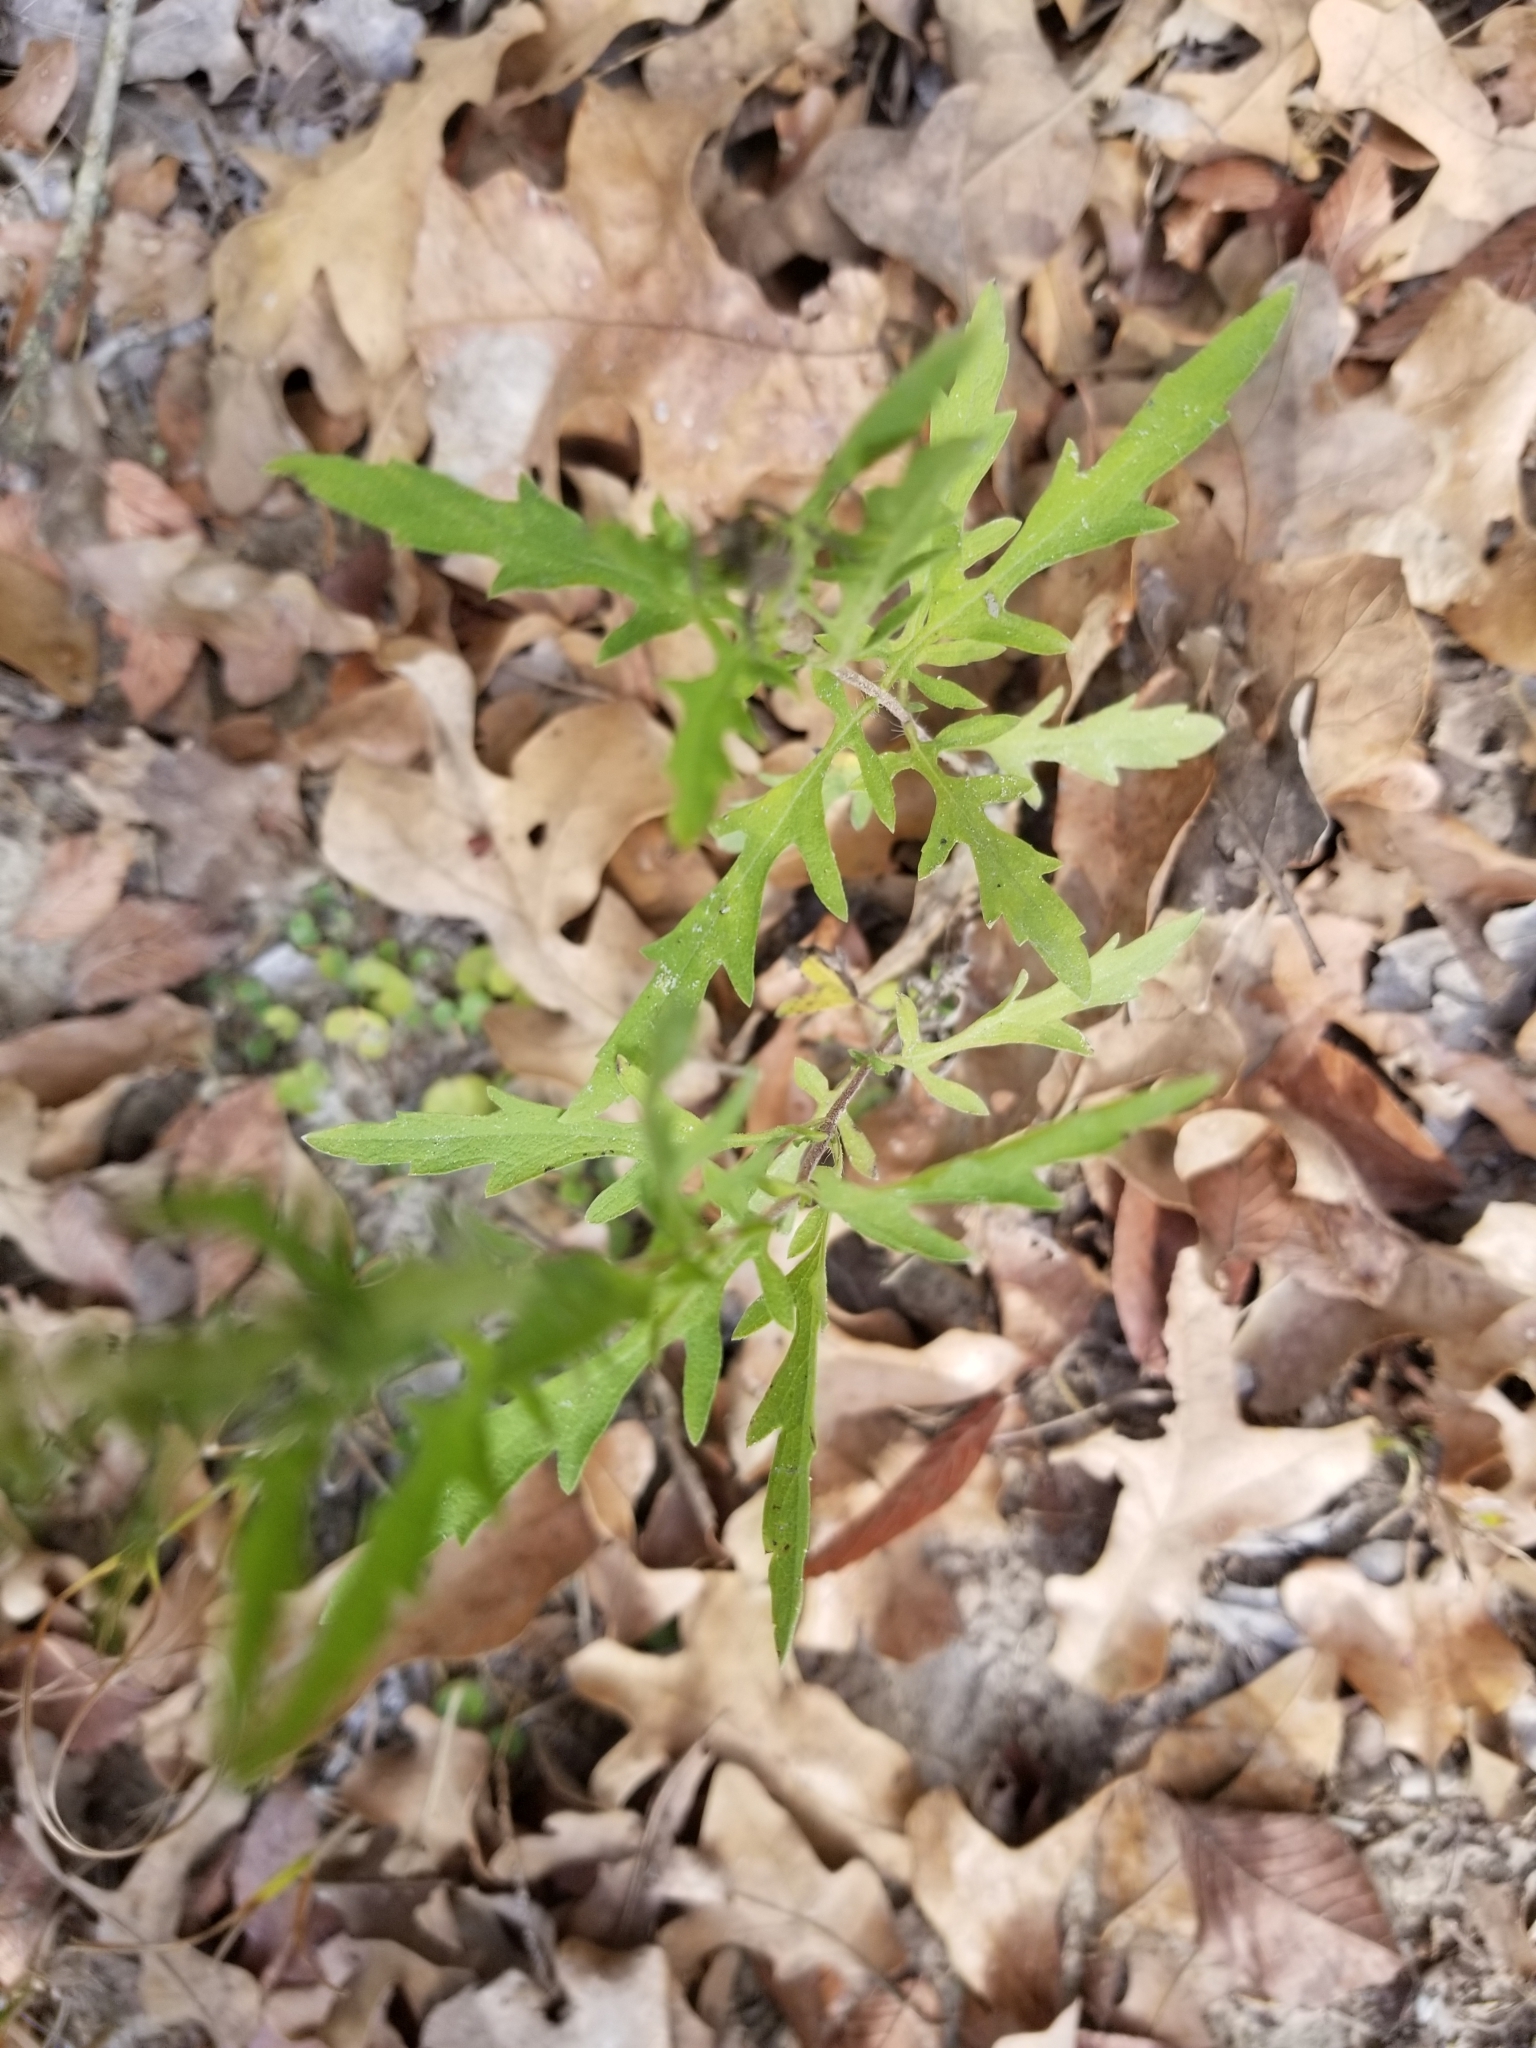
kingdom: Plantae
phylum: Tracheophyta
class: Magnoliopsida
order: Asterales
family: Asteraceae
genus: Ambrosia
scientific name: Ambrosia psilostachya
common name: Perennial ragweed
